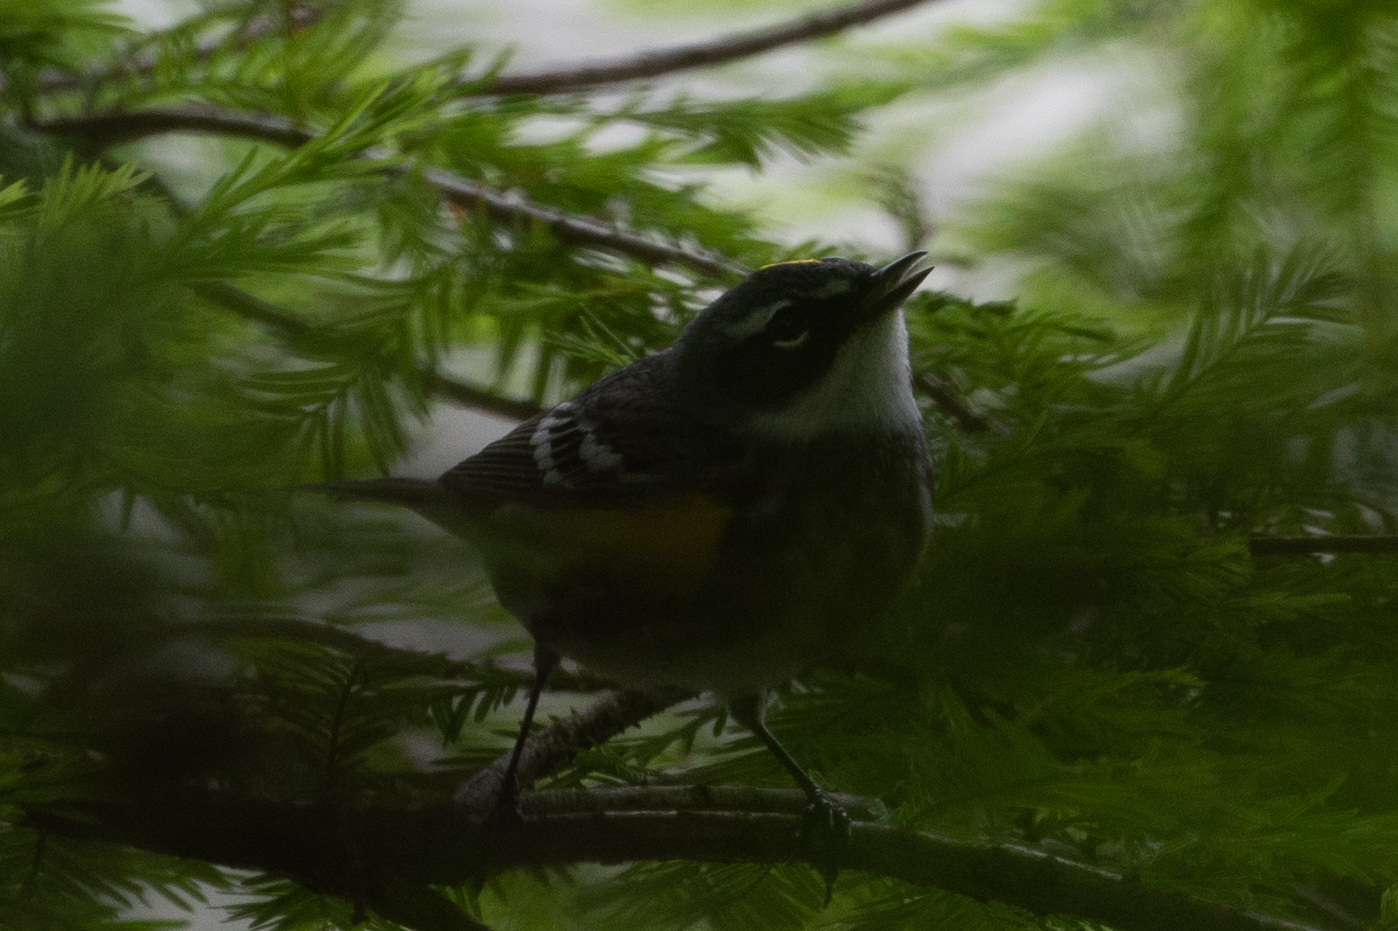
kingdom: Animalia
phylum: Chordata
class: Aves
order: Passeriformes
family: Parulidae
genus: Setophaga
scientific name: Setophaga coronata
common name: Myrtle warbler
